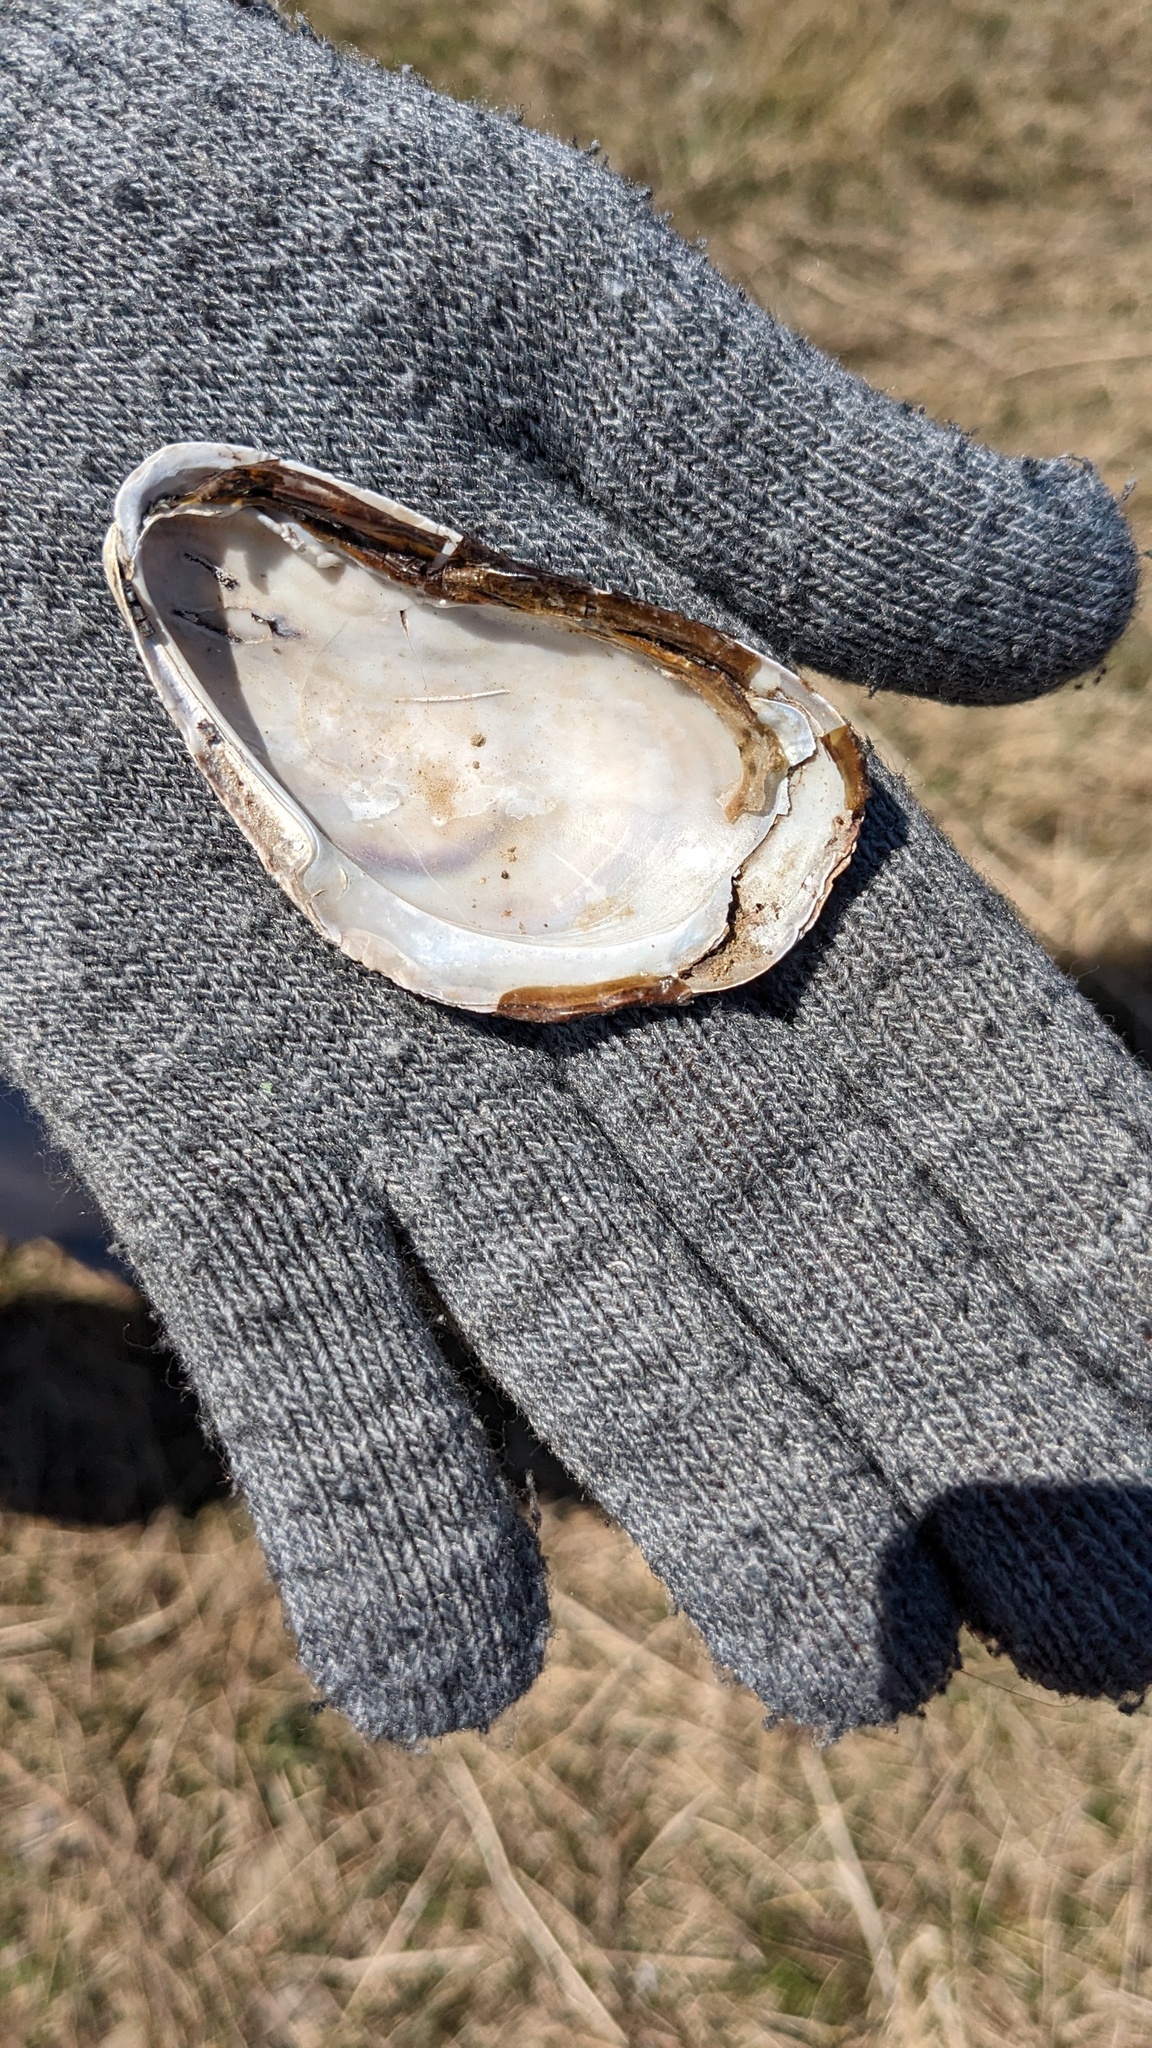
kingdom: Animalia
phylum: Mollusca
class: Bivalvia
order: Mytilida
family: Mytilidae
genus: Modiolus
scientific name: Modiolus modiolus
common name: Horse-mussel
